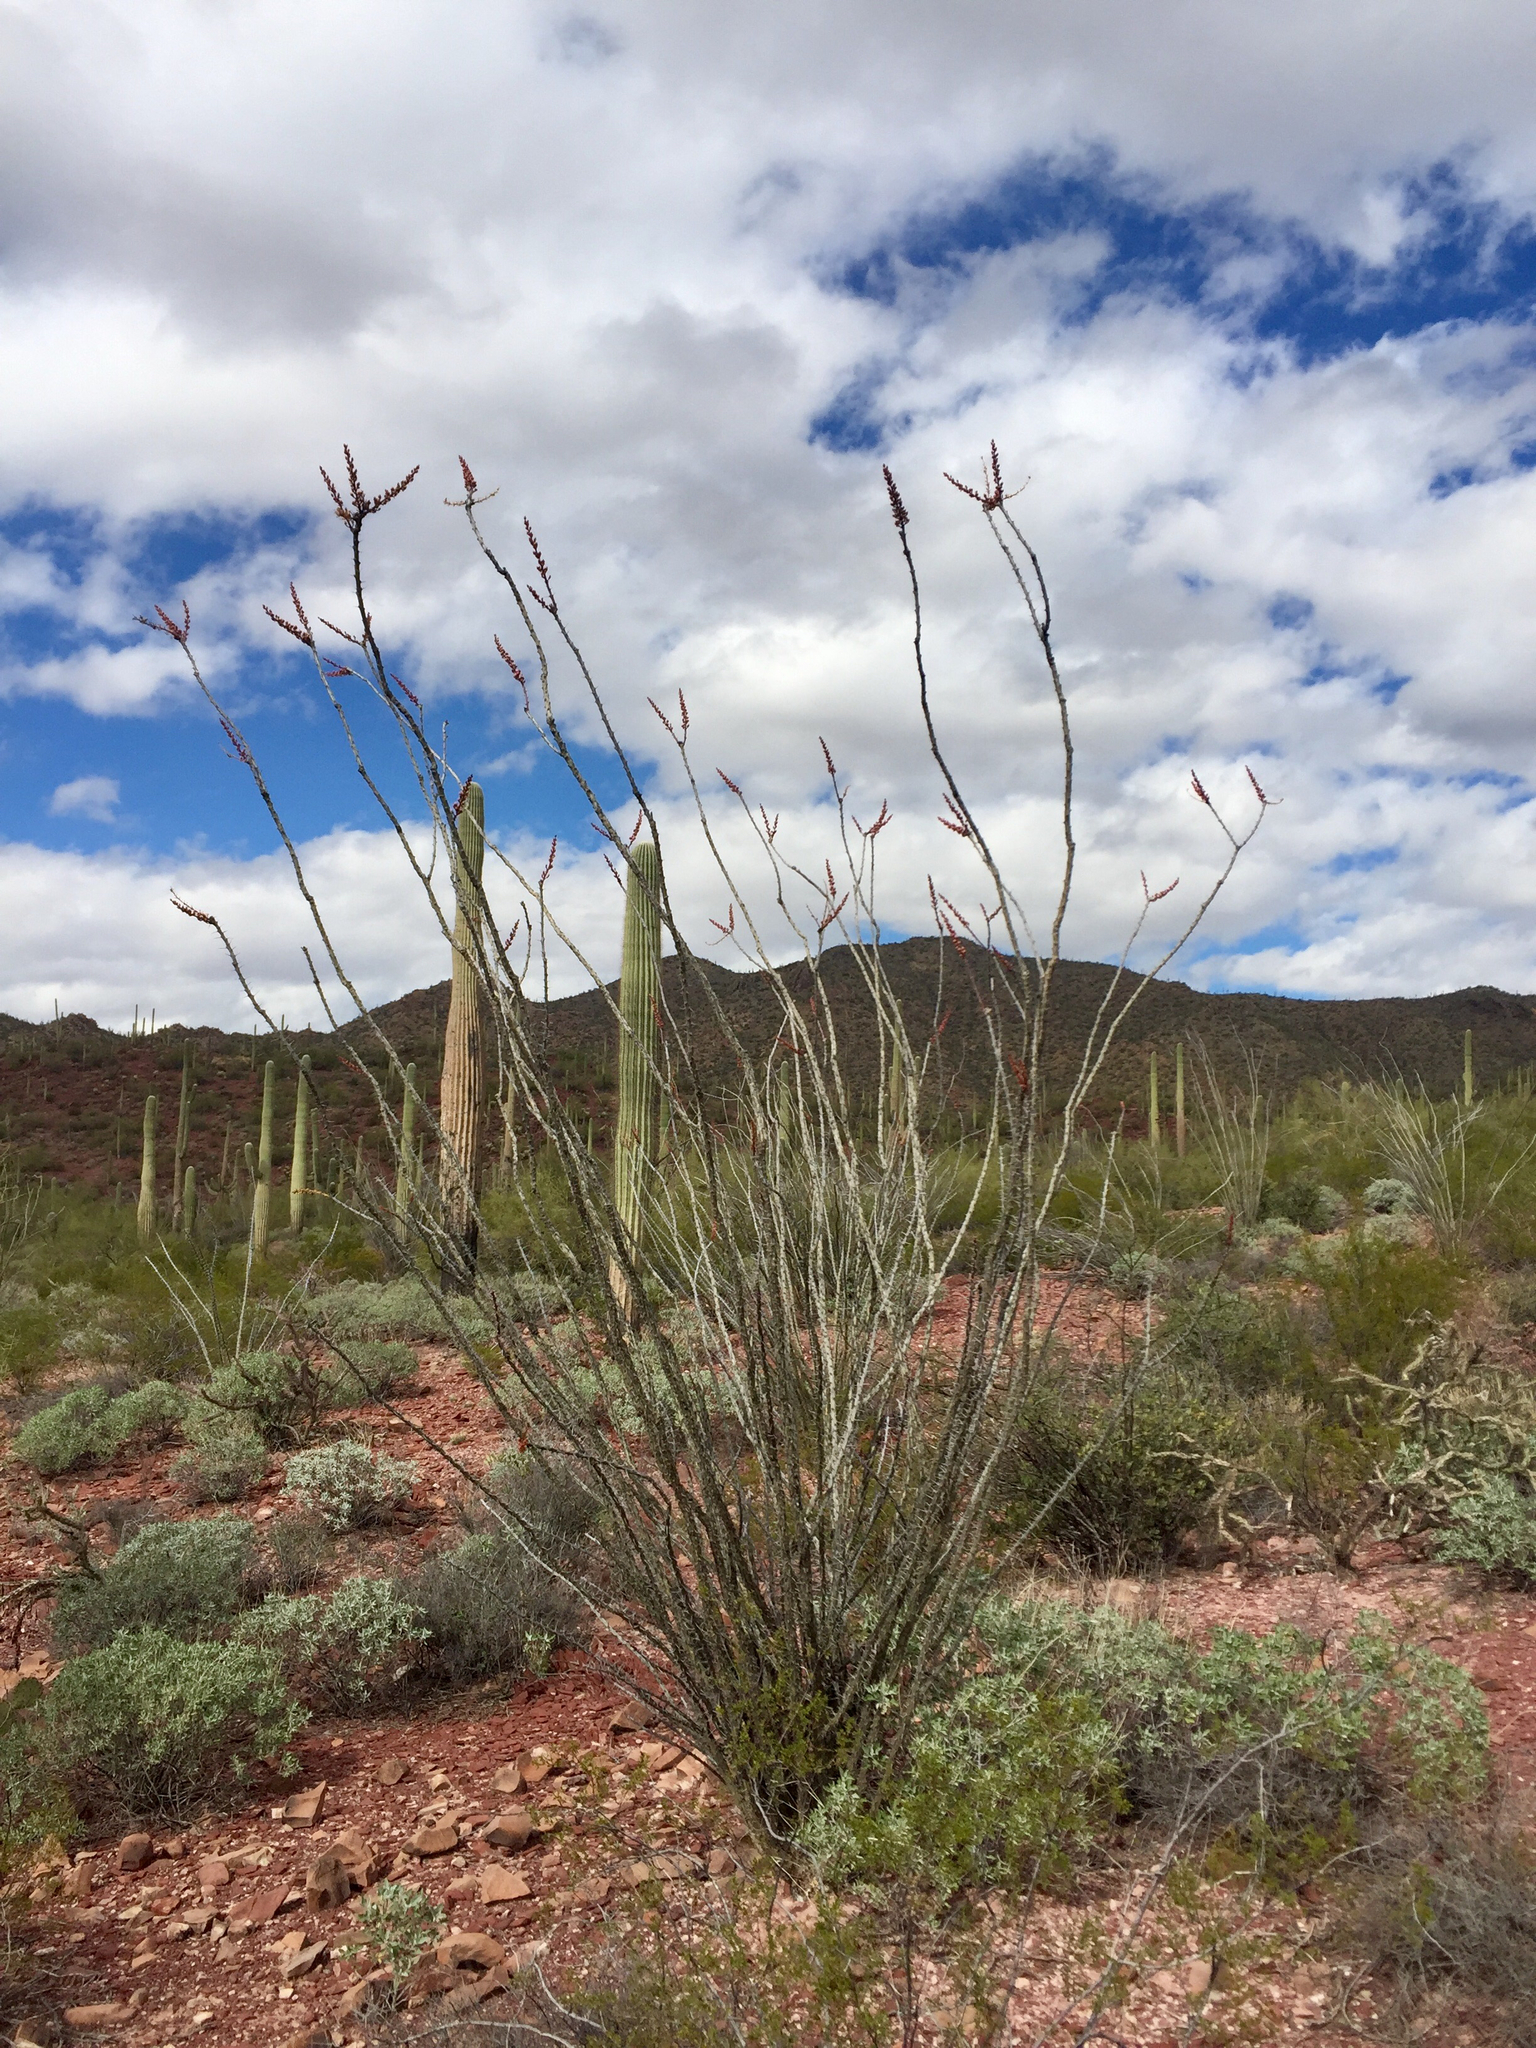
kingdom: Plantae
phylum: Tracheophyta
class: Magnoliopsida
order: Ericales
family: Fouquieriaceae
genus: Fouquieria
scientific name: Fouquieria splendens
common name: Vine-cactus
